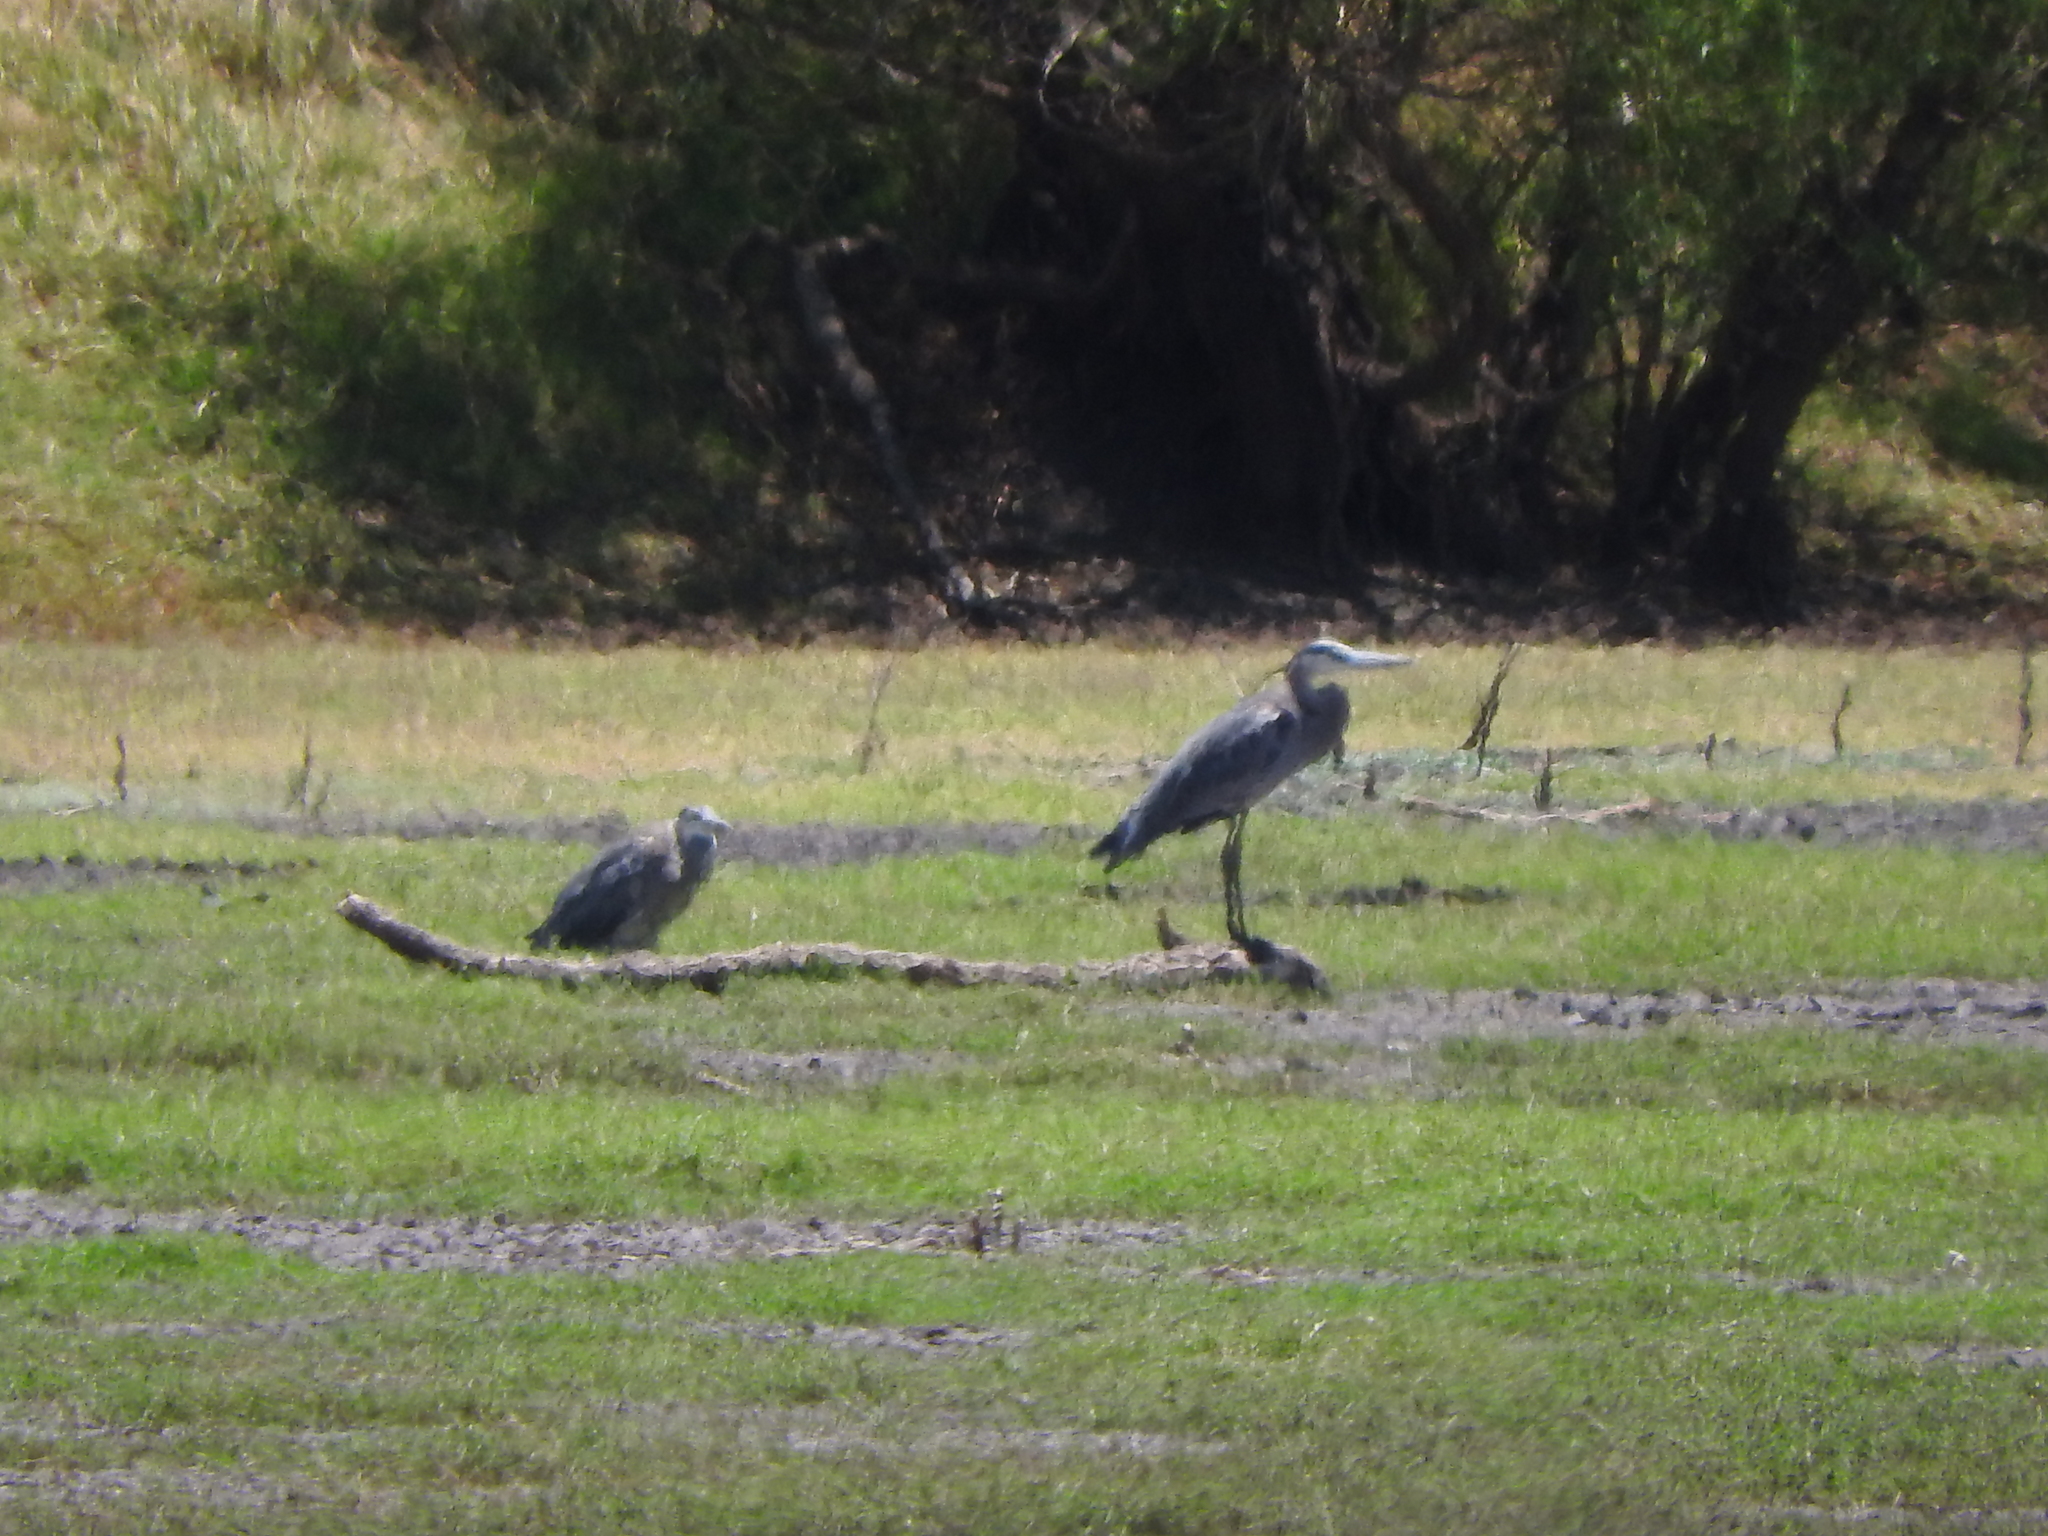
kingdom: Animalia
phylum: Chordata
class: Aves
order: Pelecaniformes
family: Ardeidae
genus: Ardea
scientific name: Ardea herodias
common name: Great blue heron
